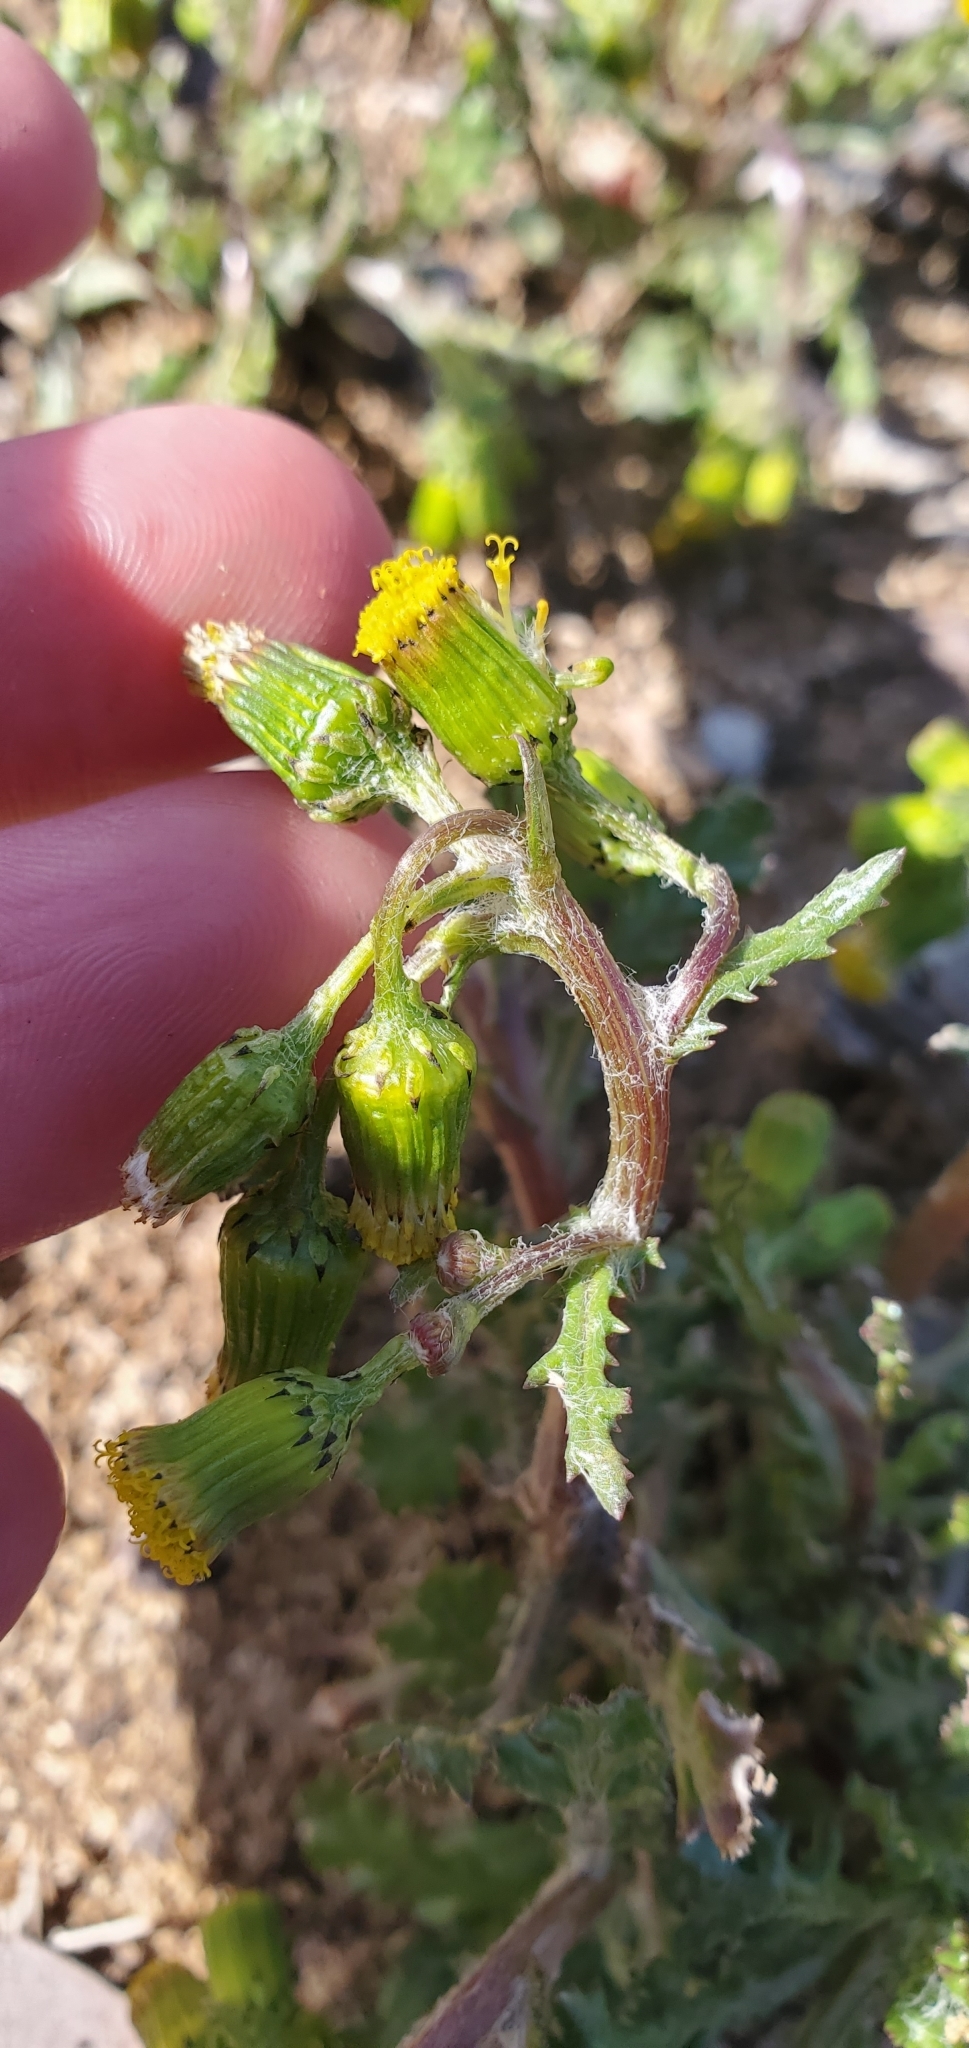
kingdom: Plantae
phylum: Tracheophyta
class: Magnoliopsida
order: Asterales
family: Asteraceae
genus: Senecio
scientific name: Senecio vulgaris
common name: Old-man-in-the-spring
